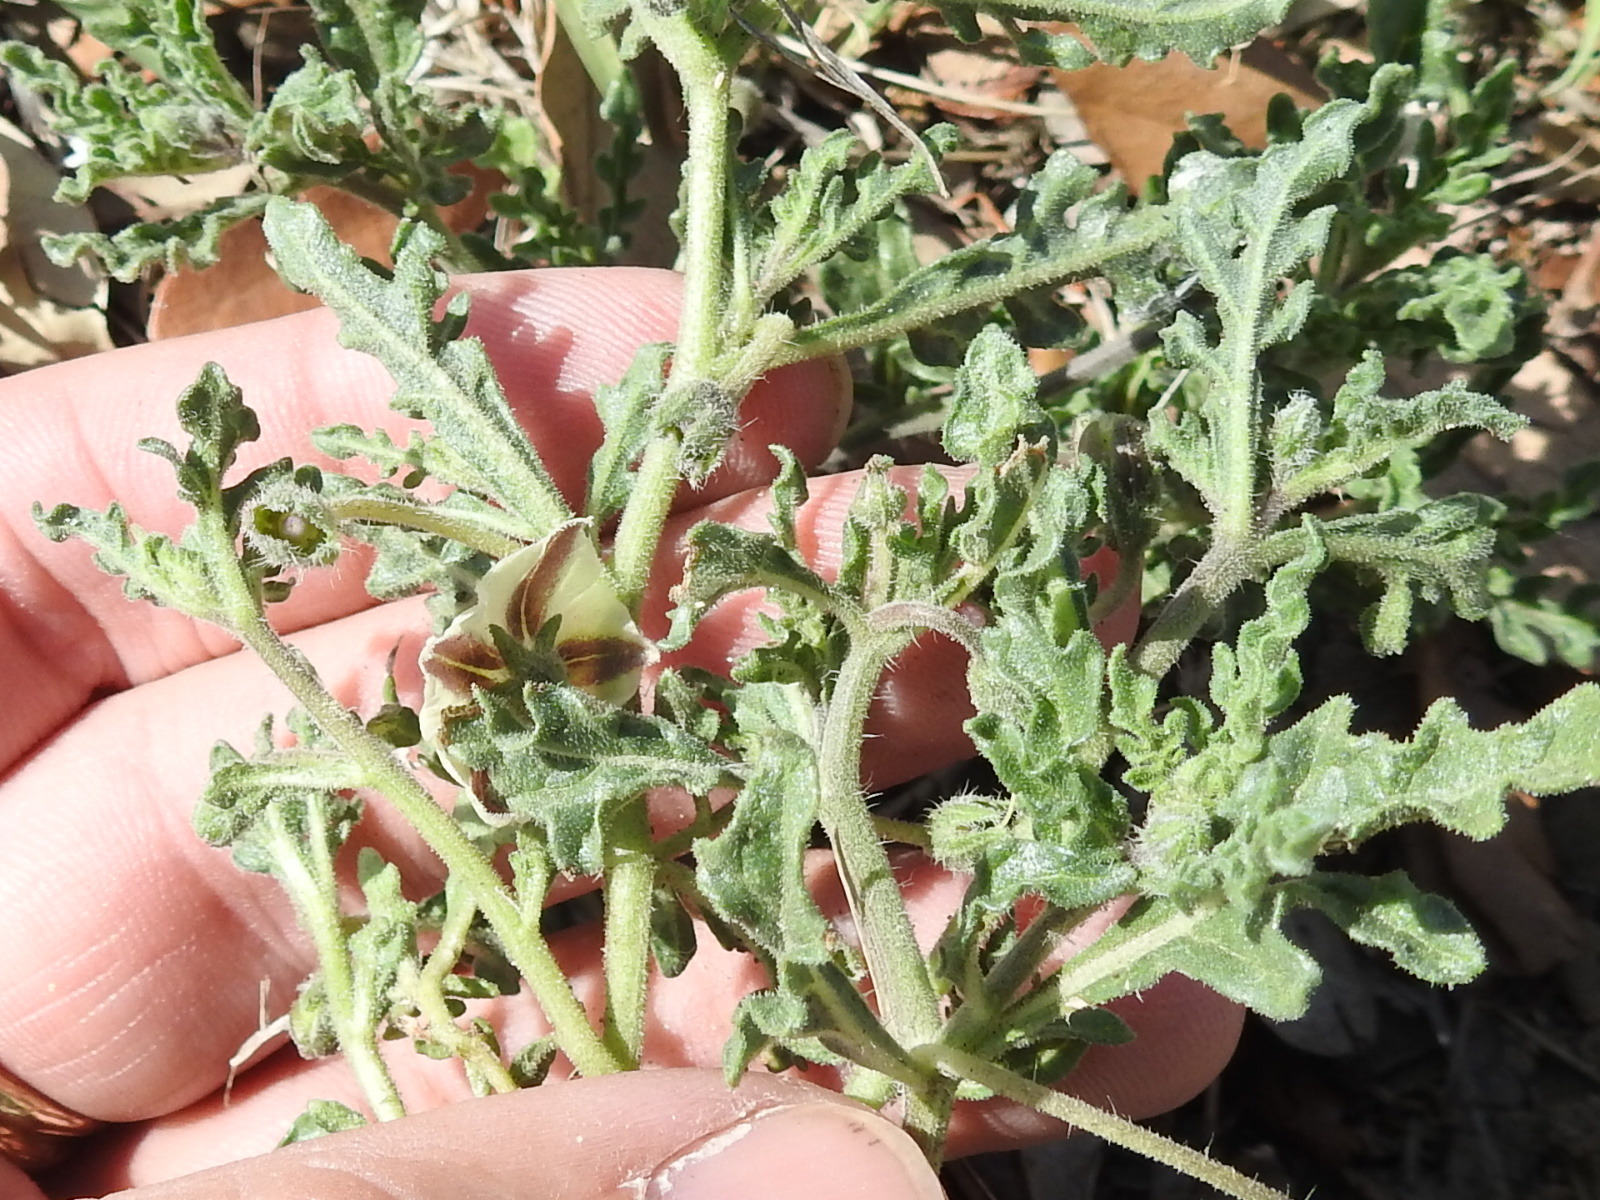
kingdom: Plantae
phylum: Tracheophyta
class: Magnoliopsida
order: Solanales
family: Solanaceae
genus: Chamaesaracha
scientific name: Chamaesaracha coniodes
